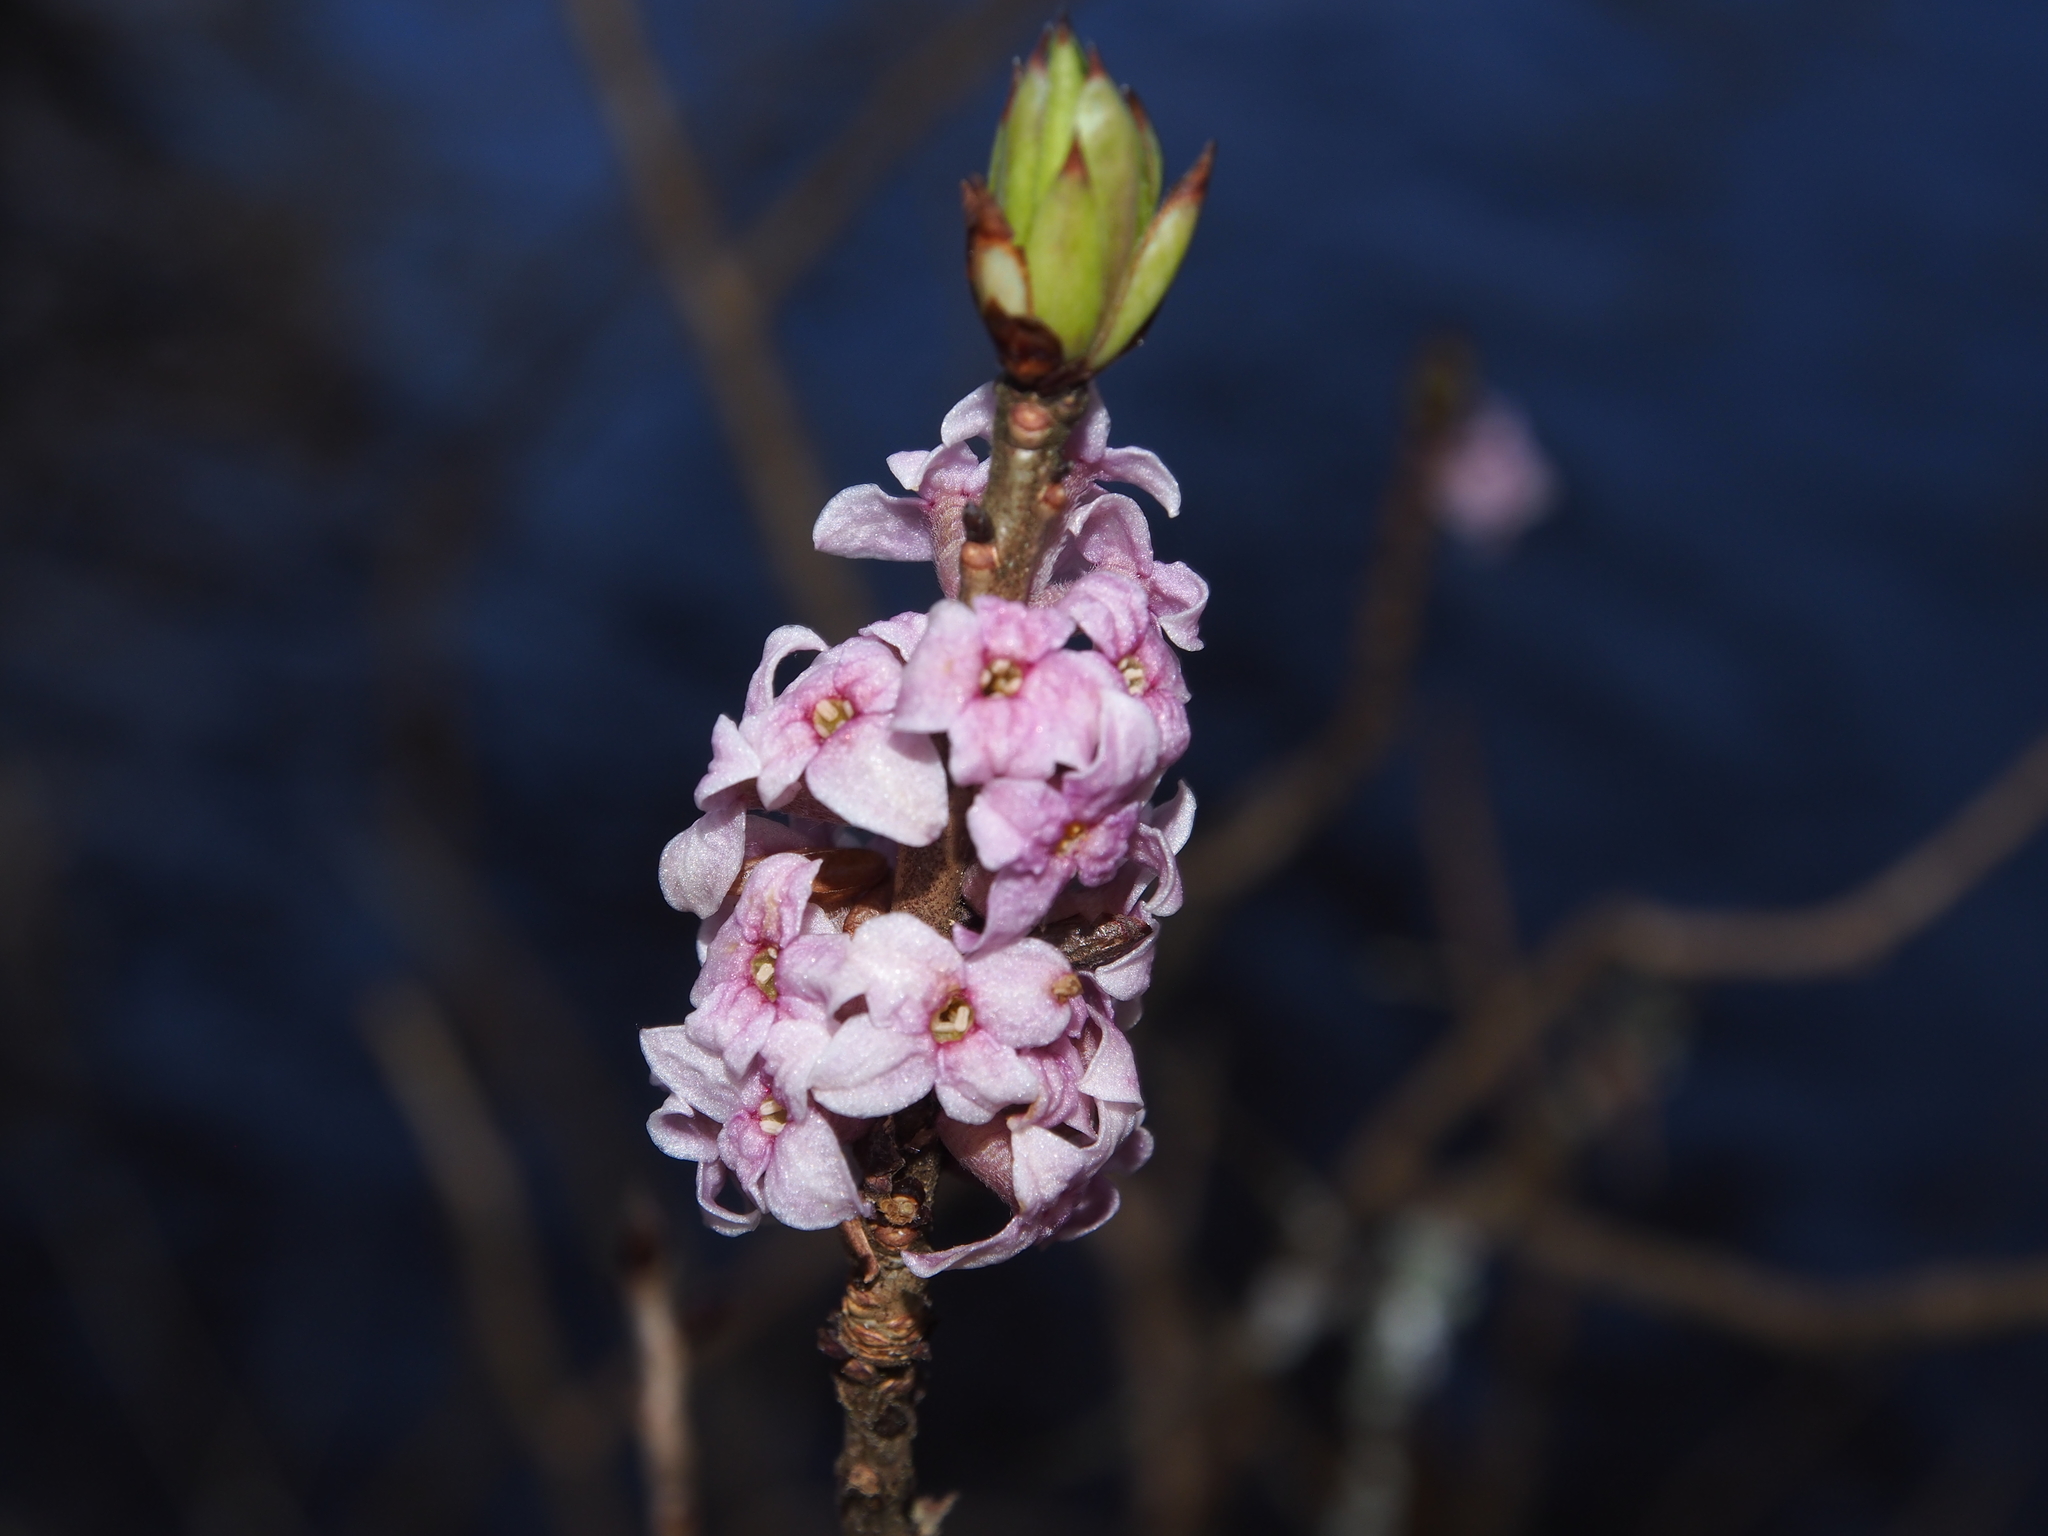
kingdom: Plantae
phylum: Tracheophyta
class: Magnoliopsida
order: Malvales
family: Thymelaeaceae
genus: Daphne
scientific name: Daphne mezereum
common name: Mezereon
